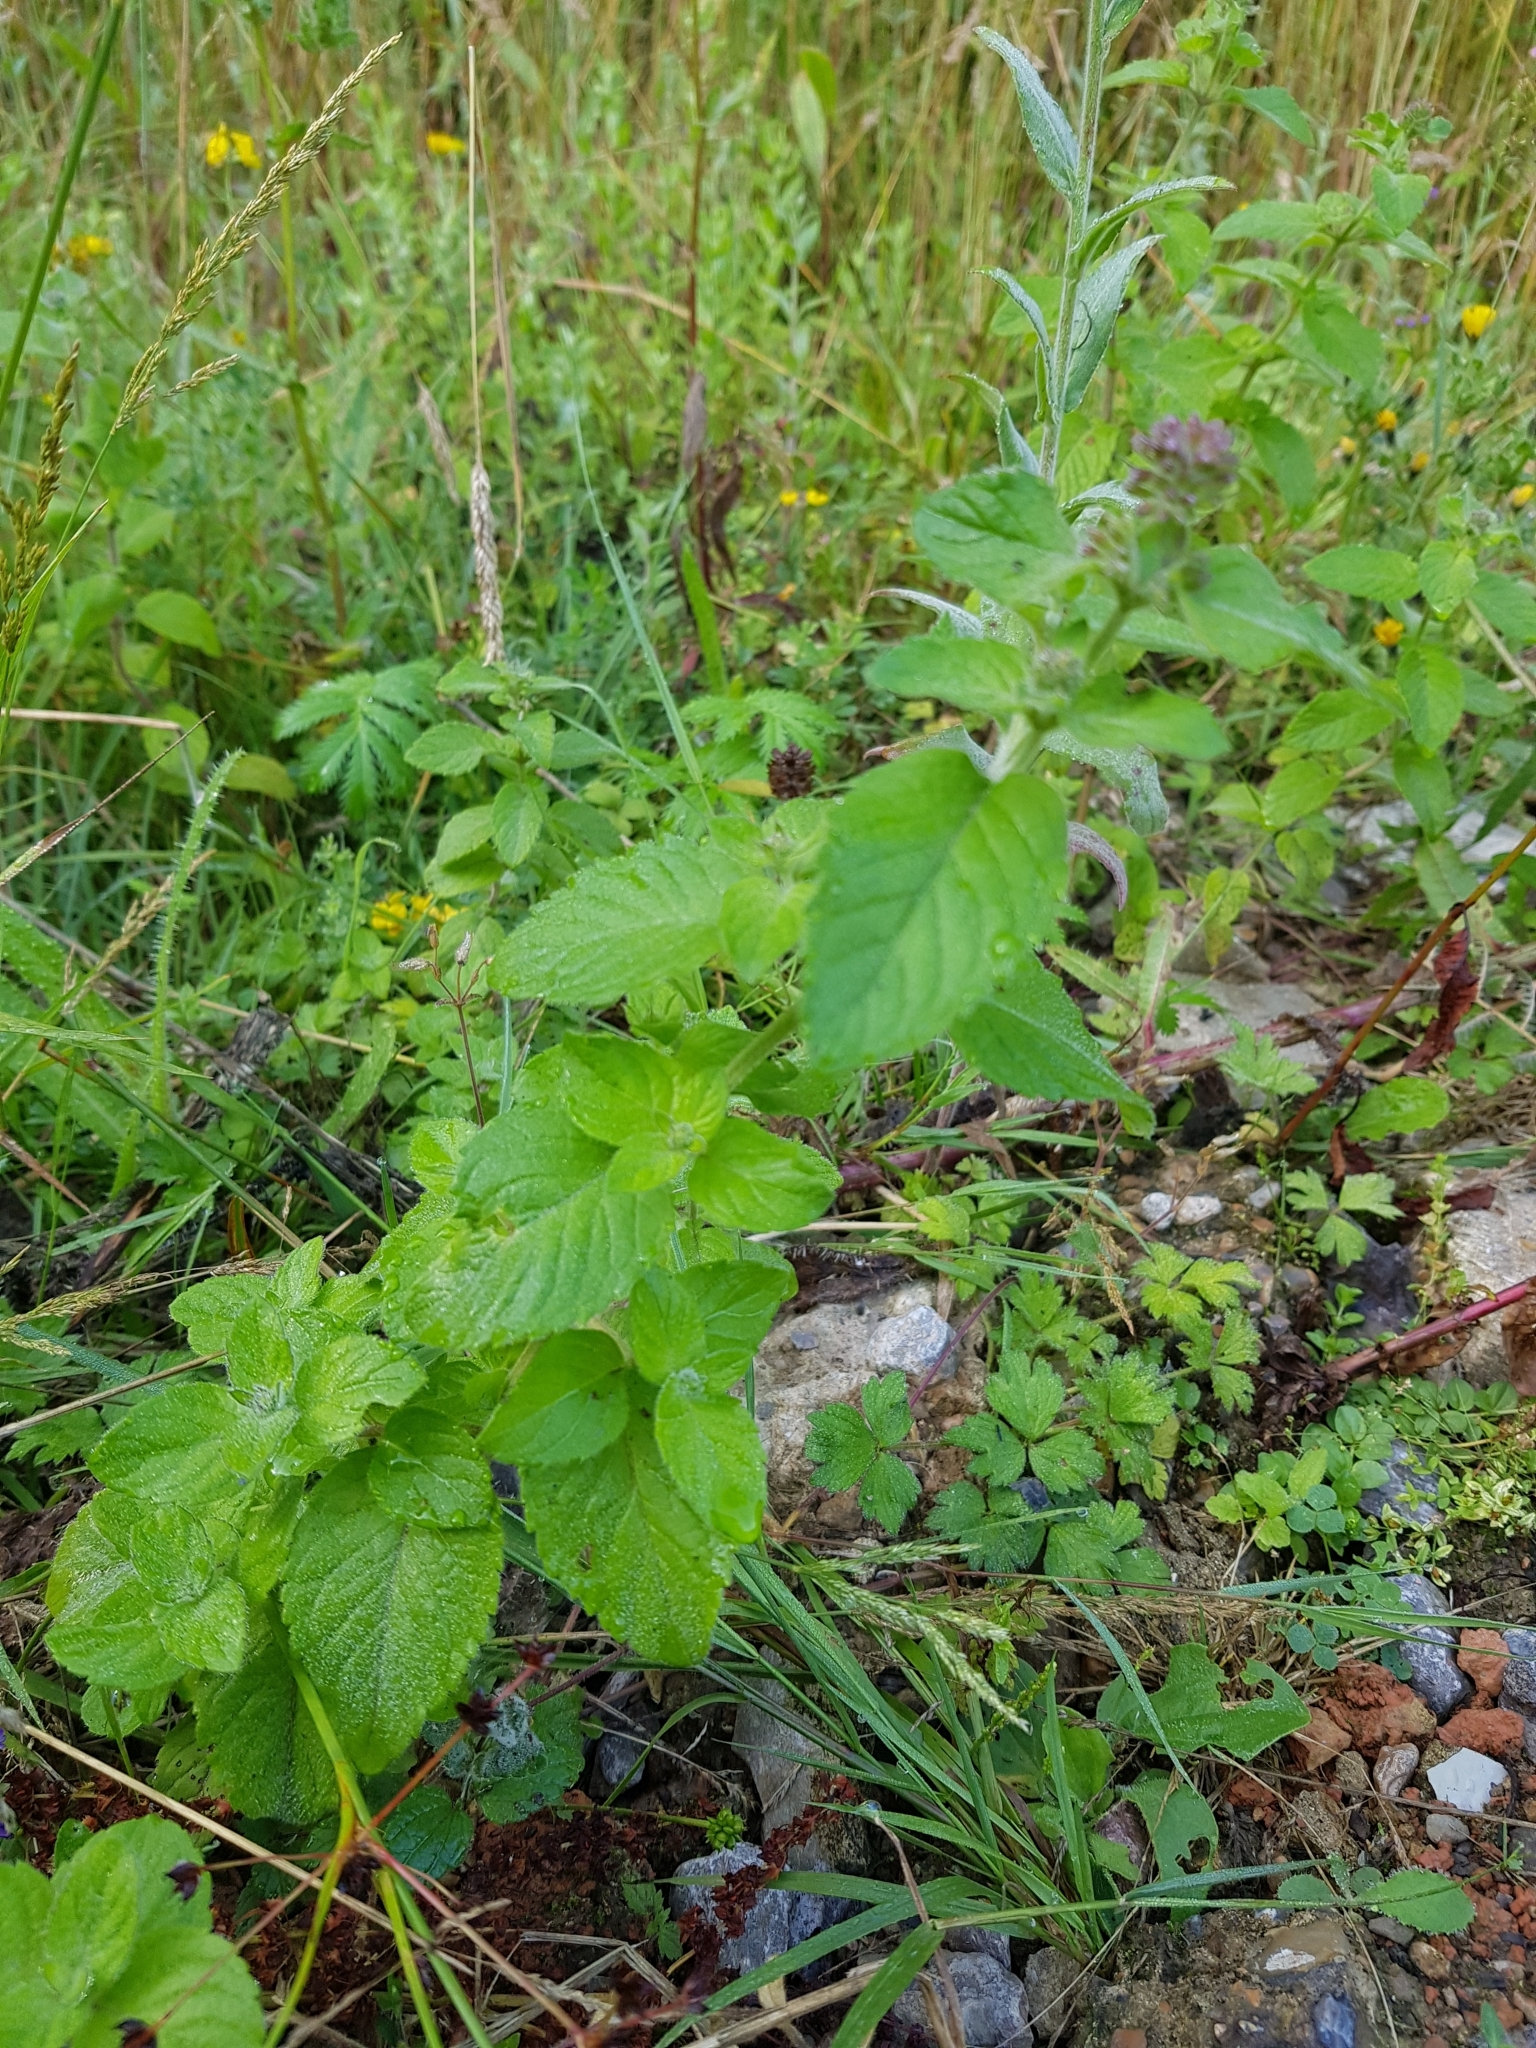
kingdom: Plantae
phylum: Tracheophyta
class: Magnoliopsida
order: Lamiales
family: Lamiaceae
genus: Mentha
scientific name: Mentha aquatica
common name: Water mint
